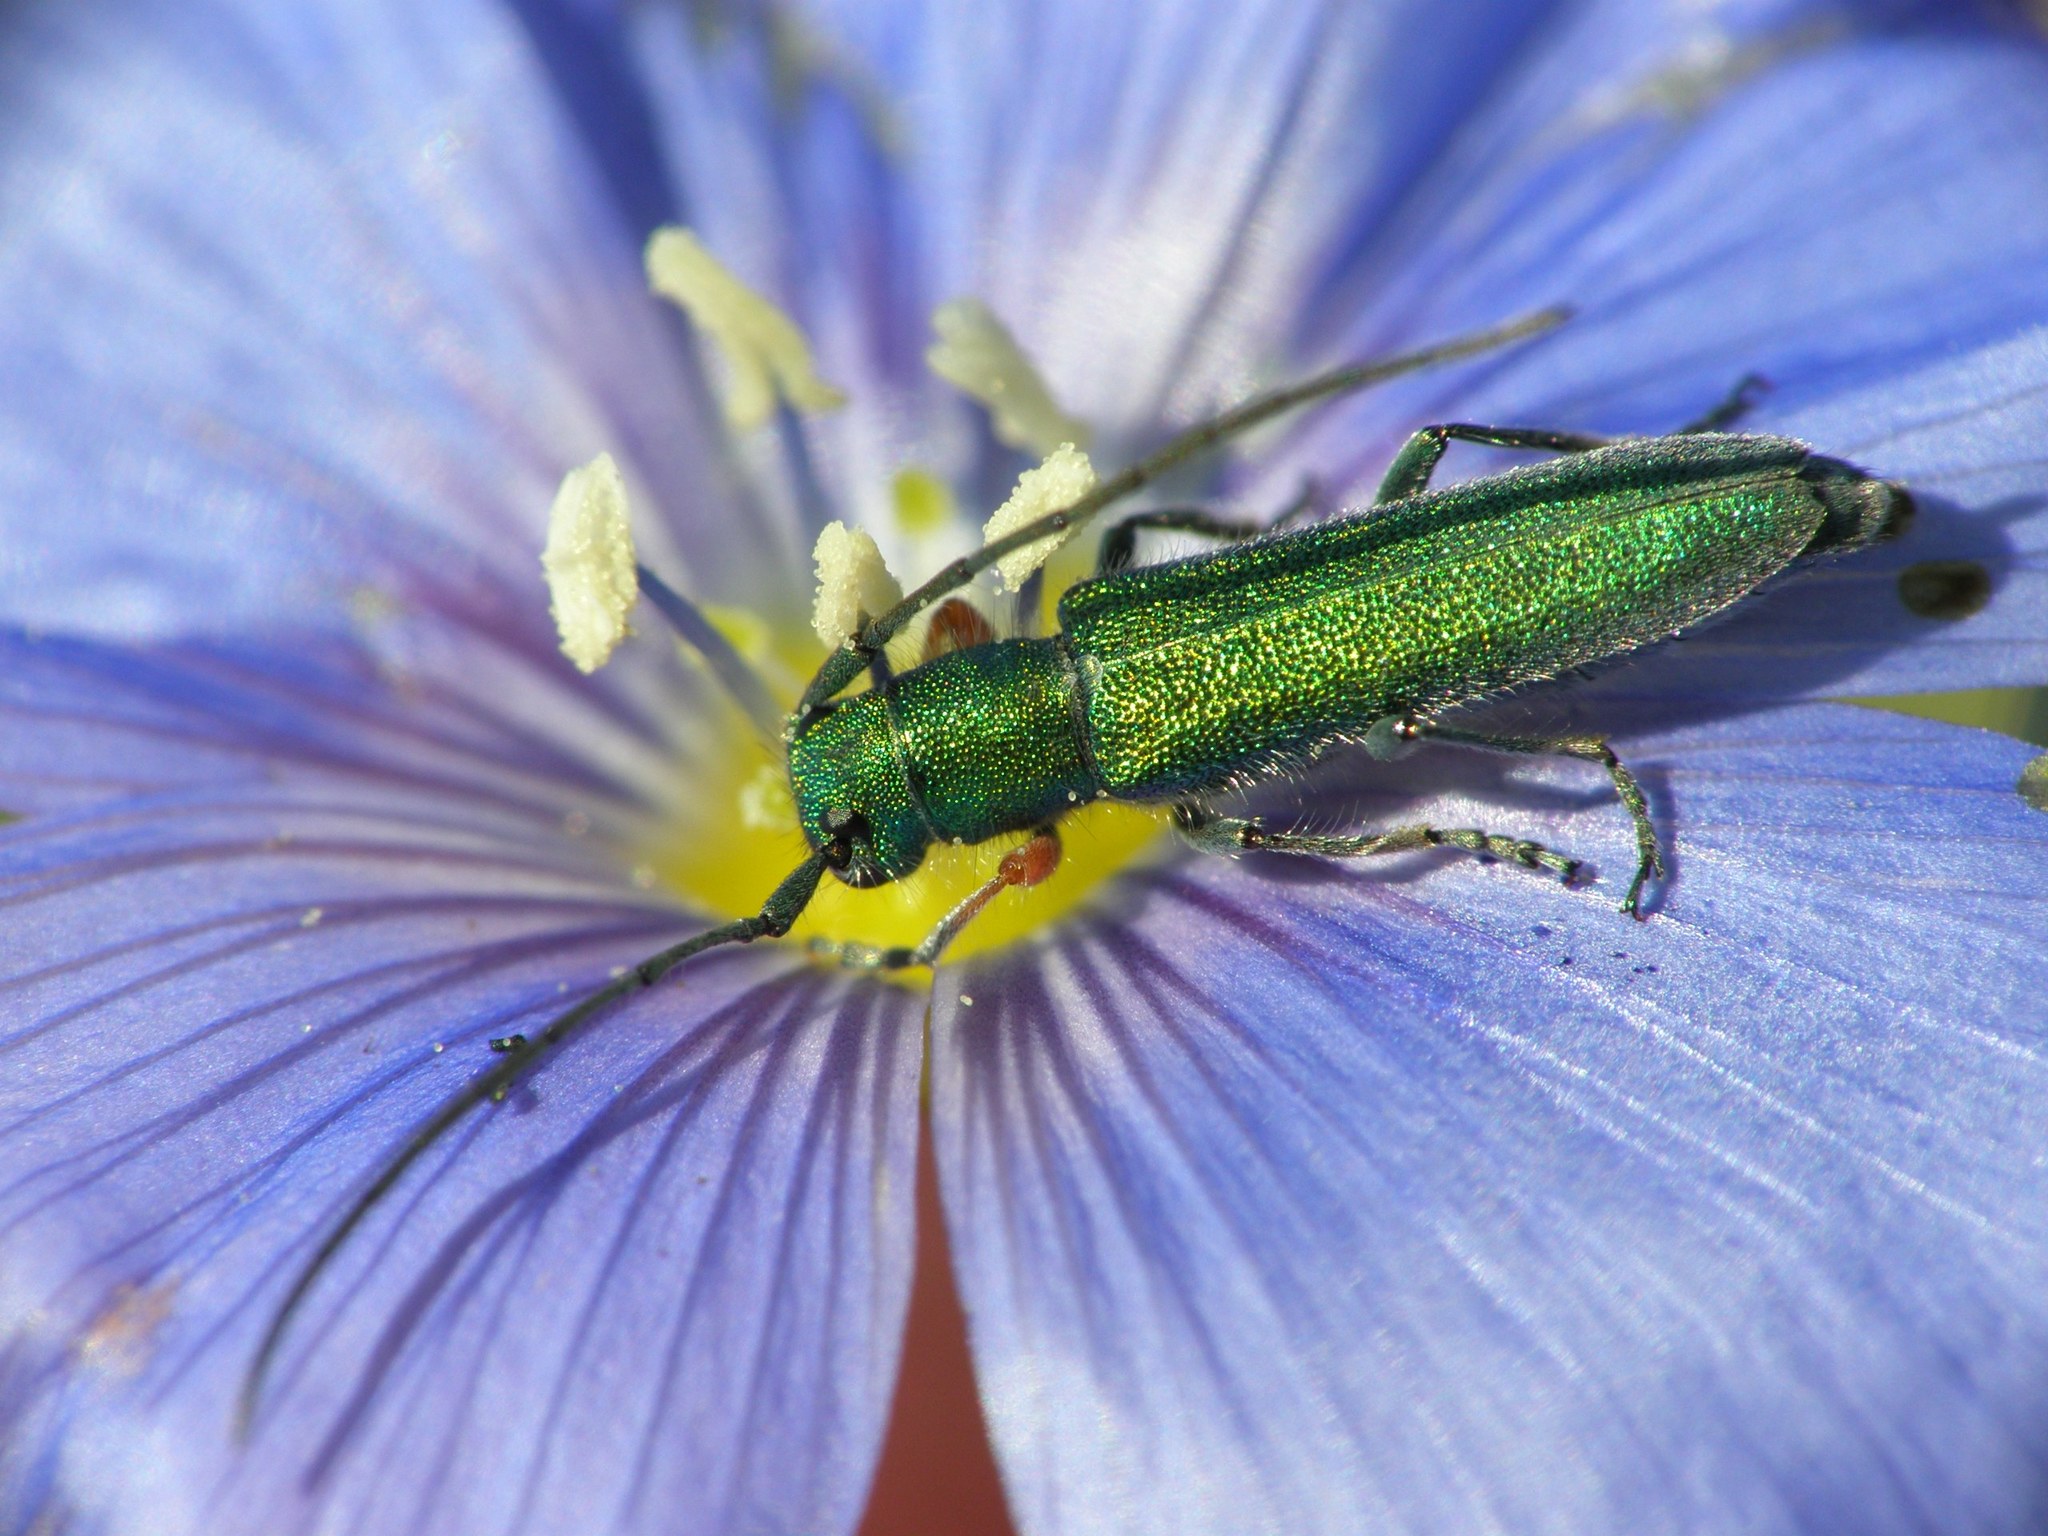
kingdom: Animalia
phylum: Arthropoda
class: Insecta
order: Coleoptera
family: Cerambycidae
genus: Phytoecia
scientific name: Phytoecia caerulea
